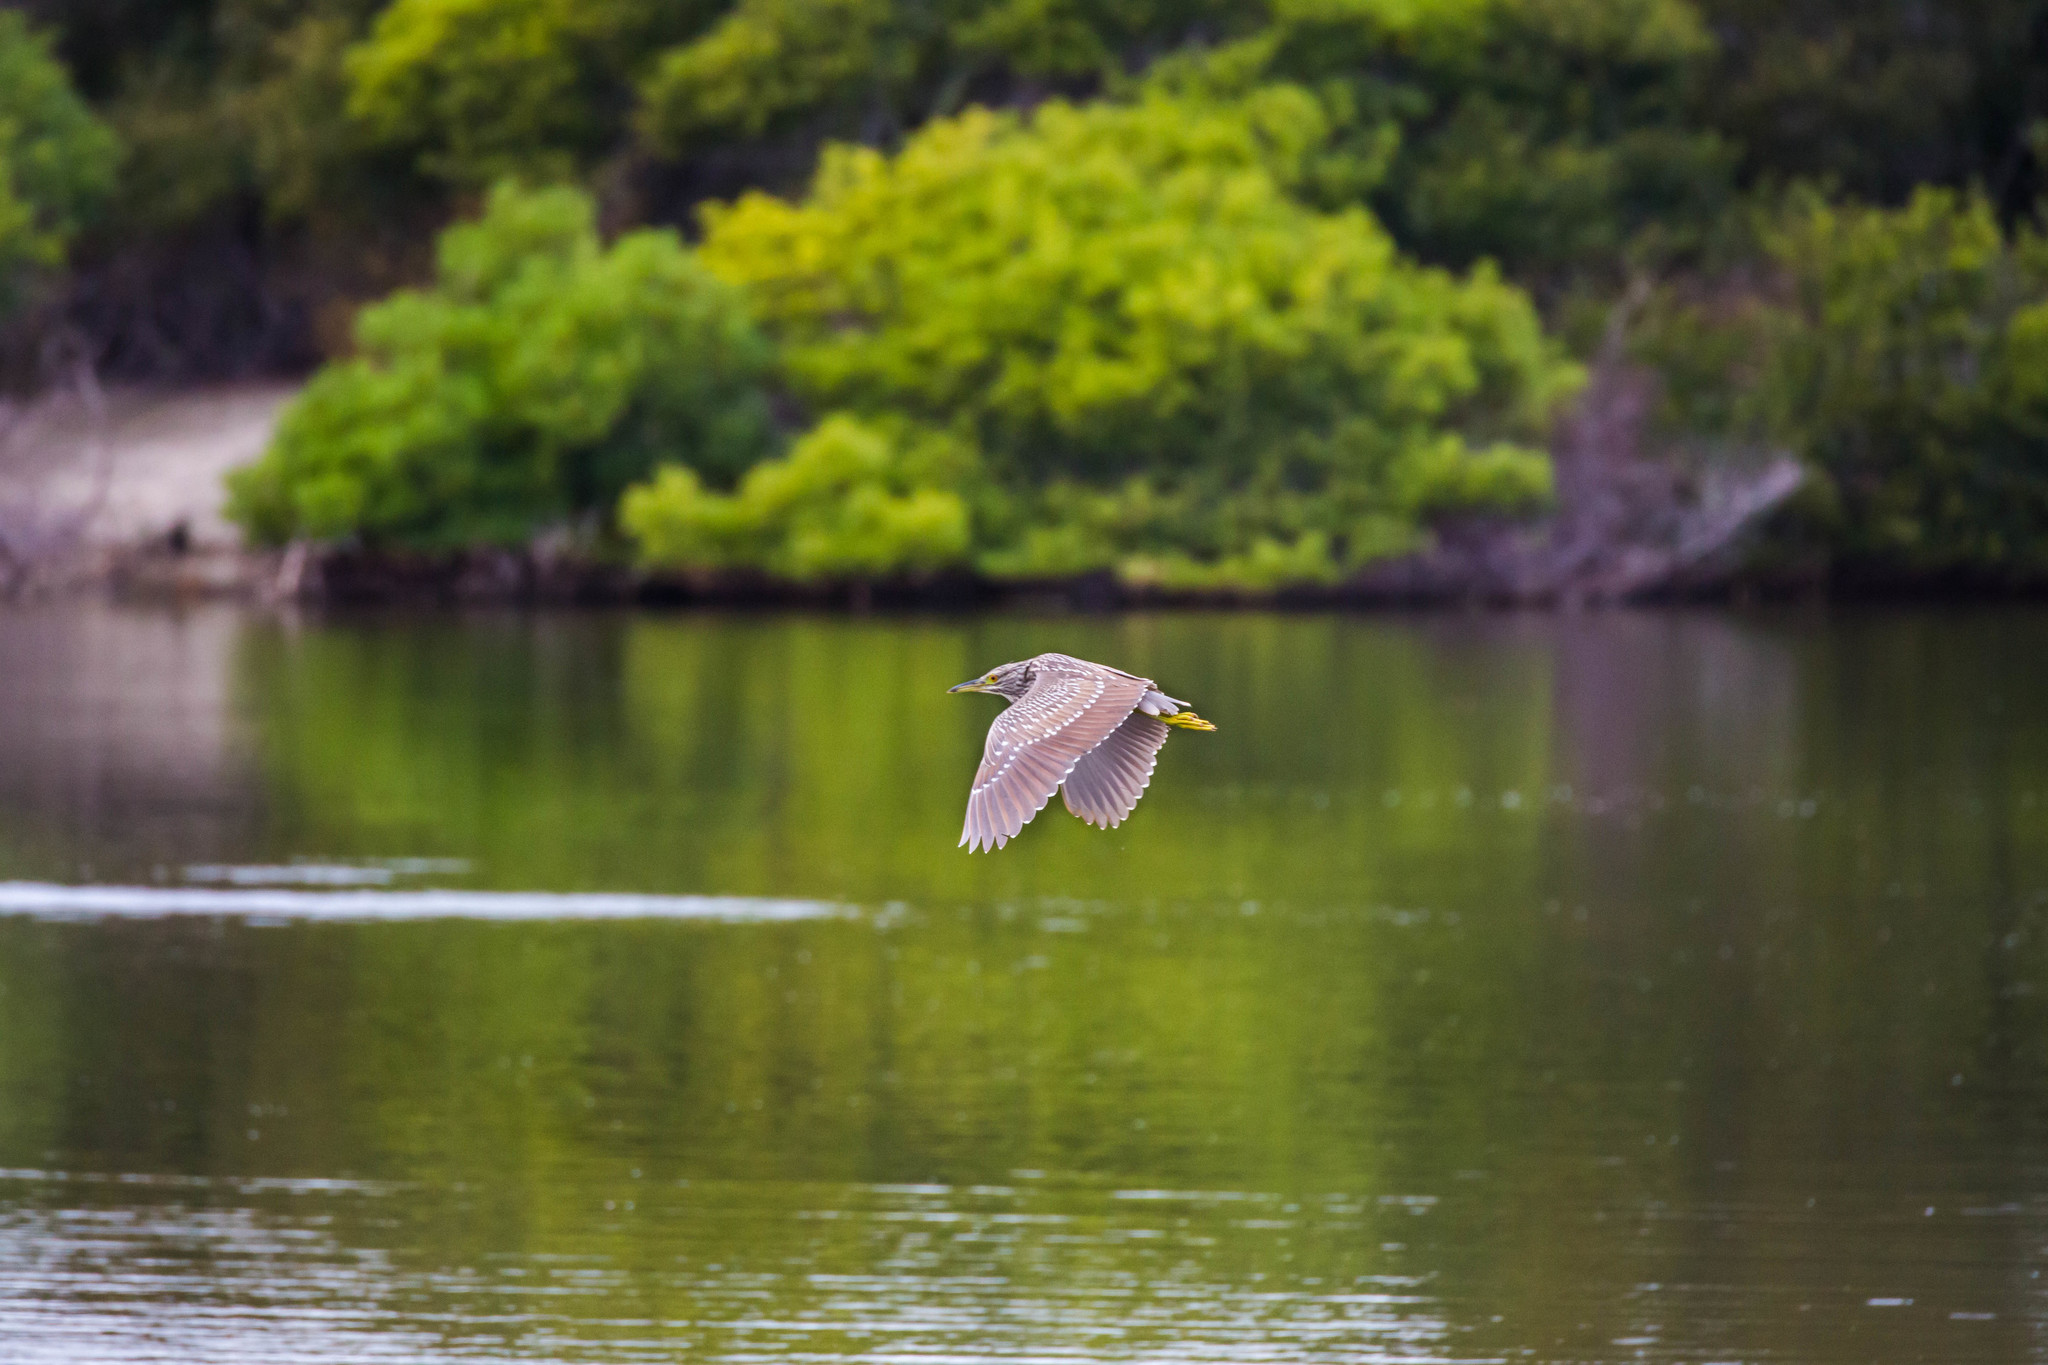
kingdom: Animalia
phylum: Chordata
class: Aves
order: Pelecaniformes
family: Ardeidae
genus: Nycticorax
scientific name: Nycticorax nycticorax
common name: Black-crowned night heron
